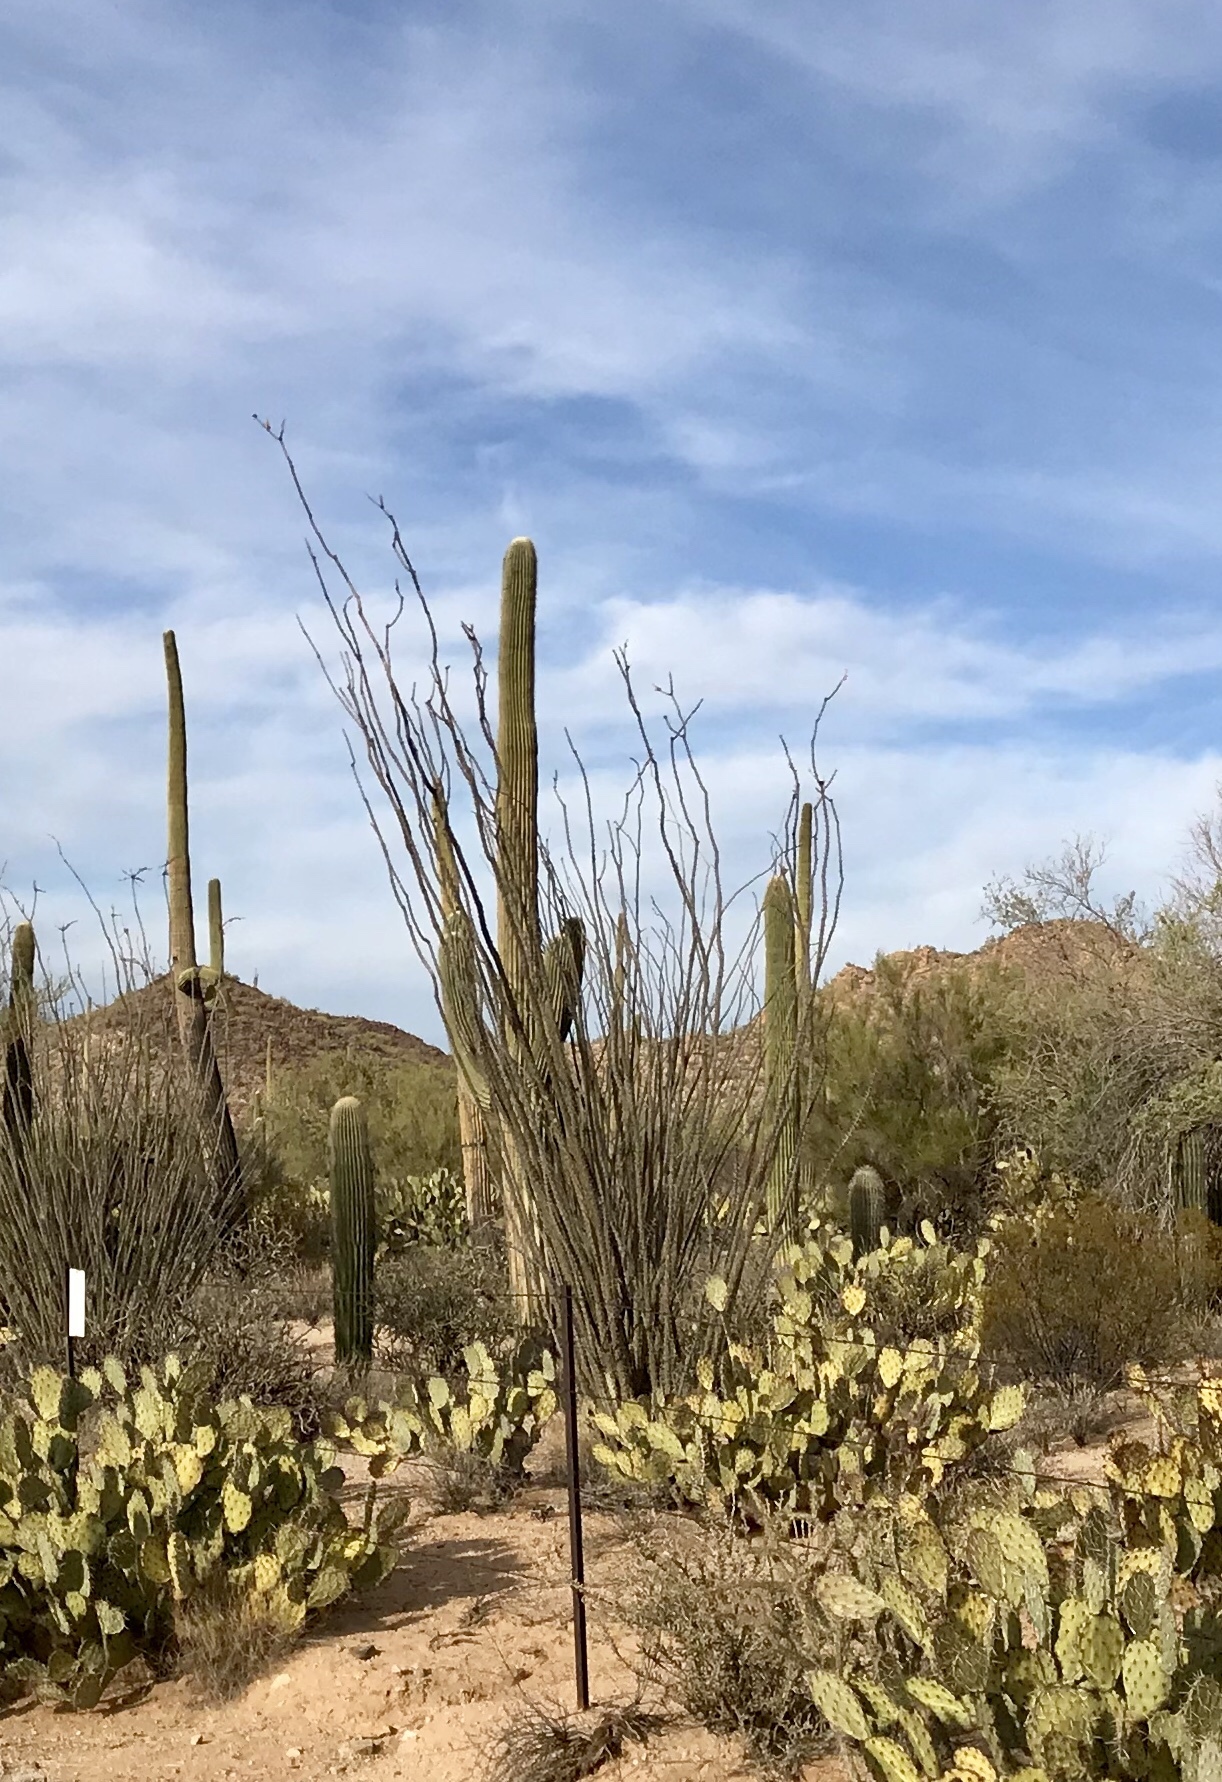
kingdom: Plantae
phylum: Tracheophyta
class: Magnoliopsida
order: Ericales
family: Fouquieriaceae
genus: Fouquieria
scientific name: Fouquieria splendens
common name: Vine-cactus
